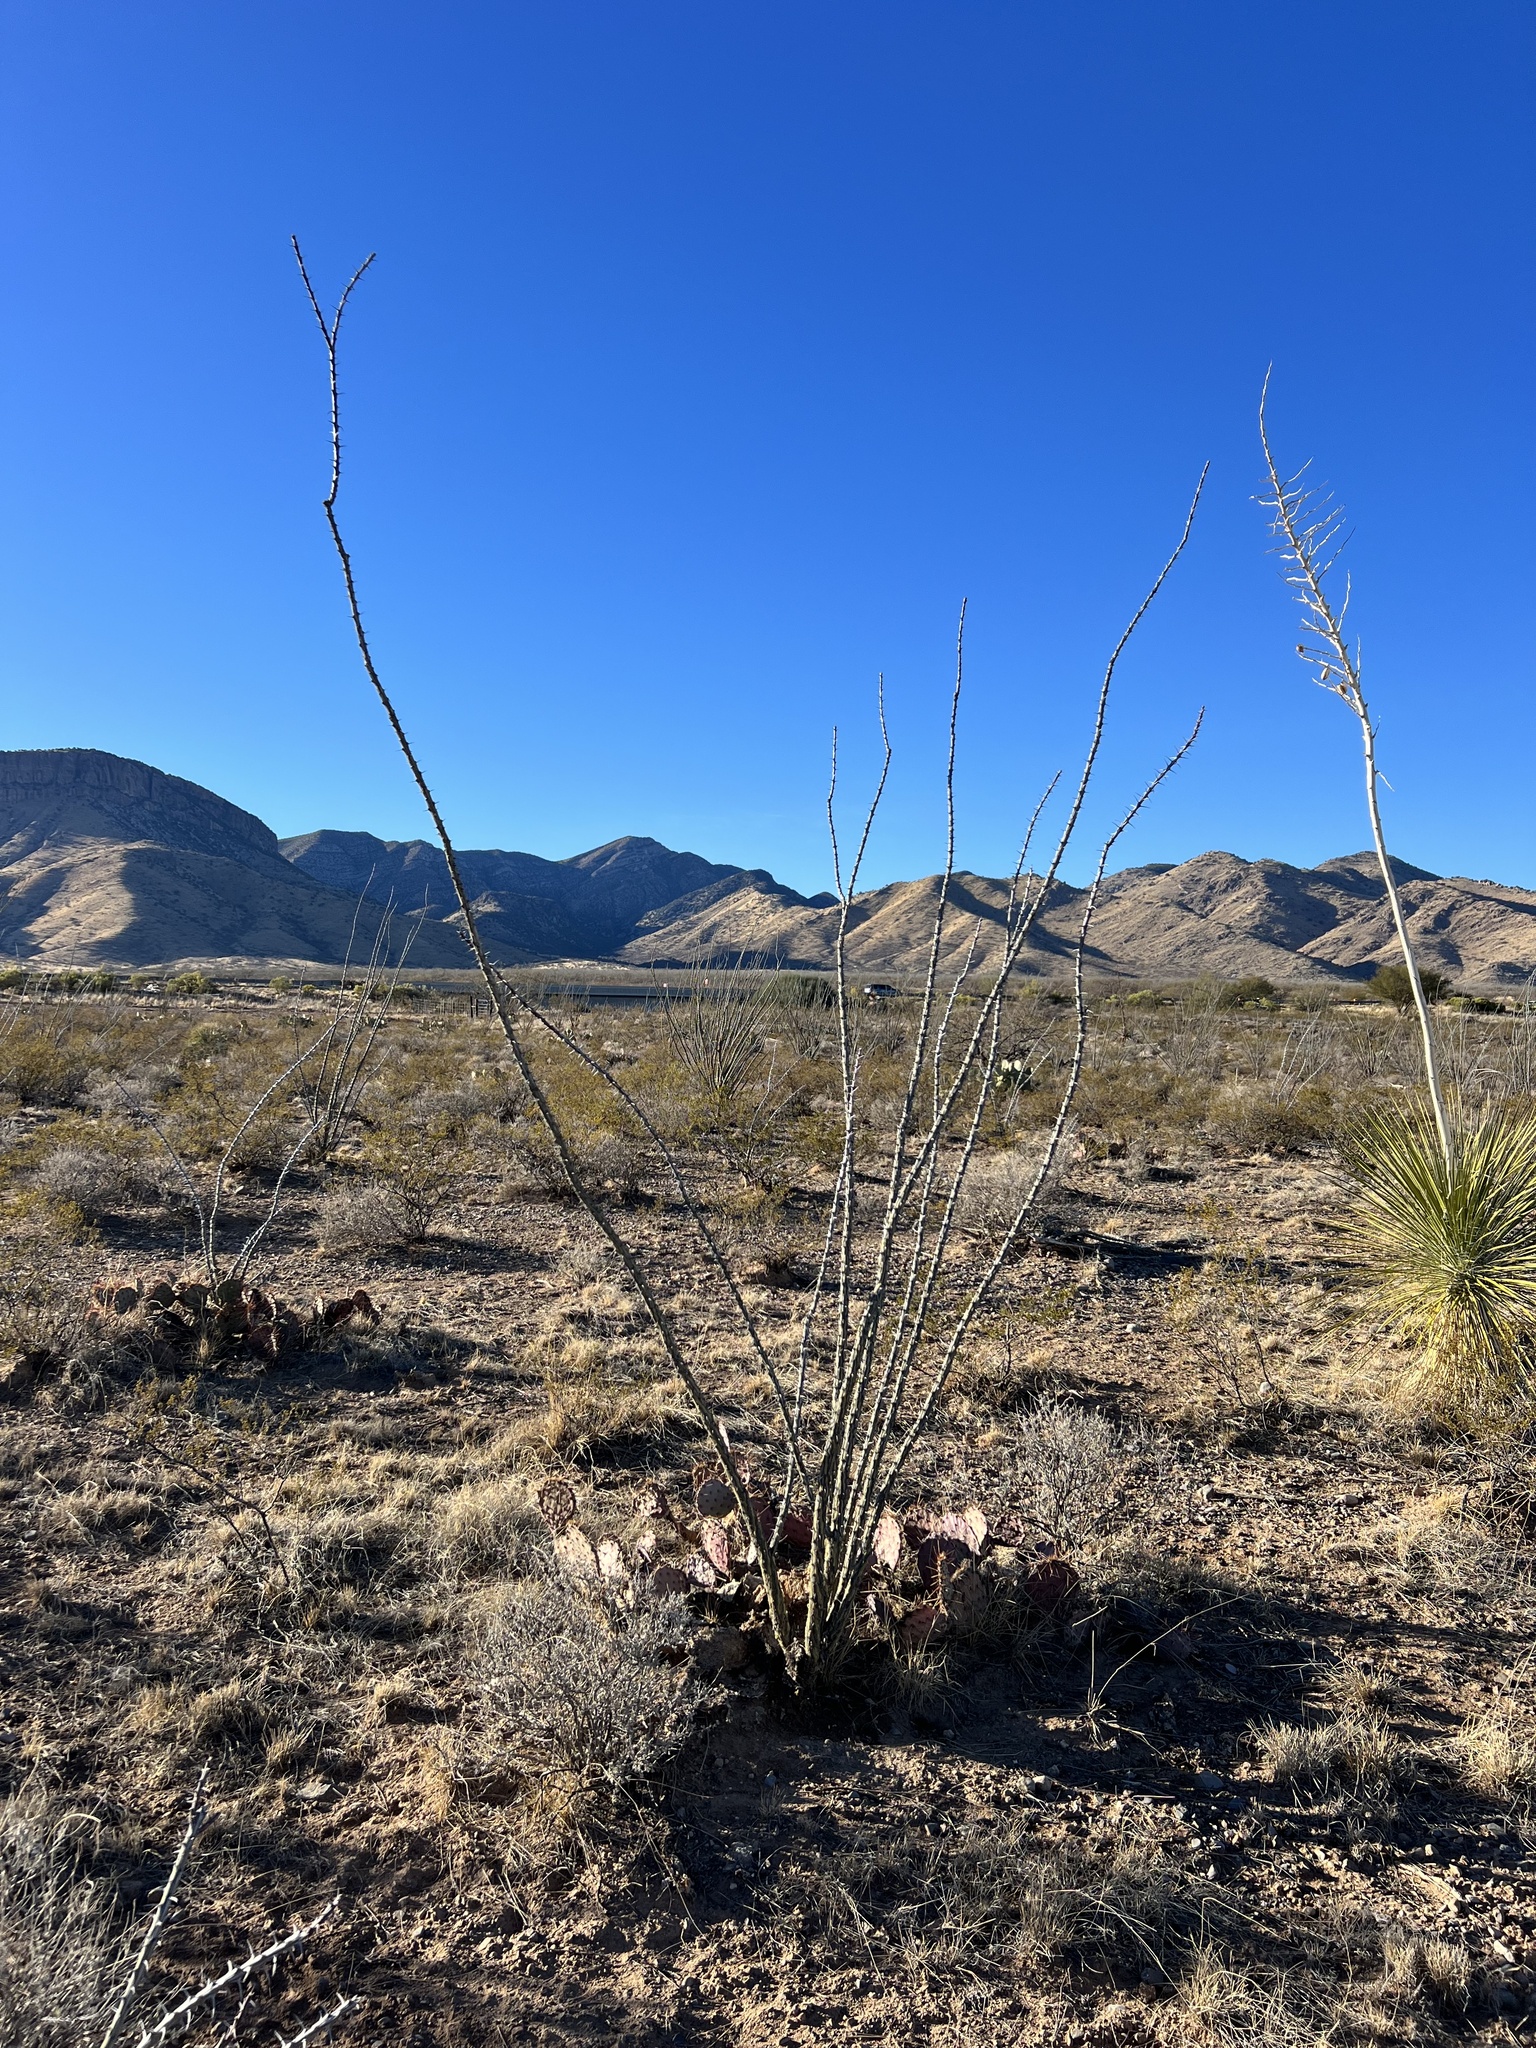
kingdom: Plantae
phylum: Tracheophyta
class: Magnoliopsida
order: Ericales
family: Fouquieriaceae
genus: Fouquieria
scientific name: Fouquieria splendens
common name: Vine-cactus
